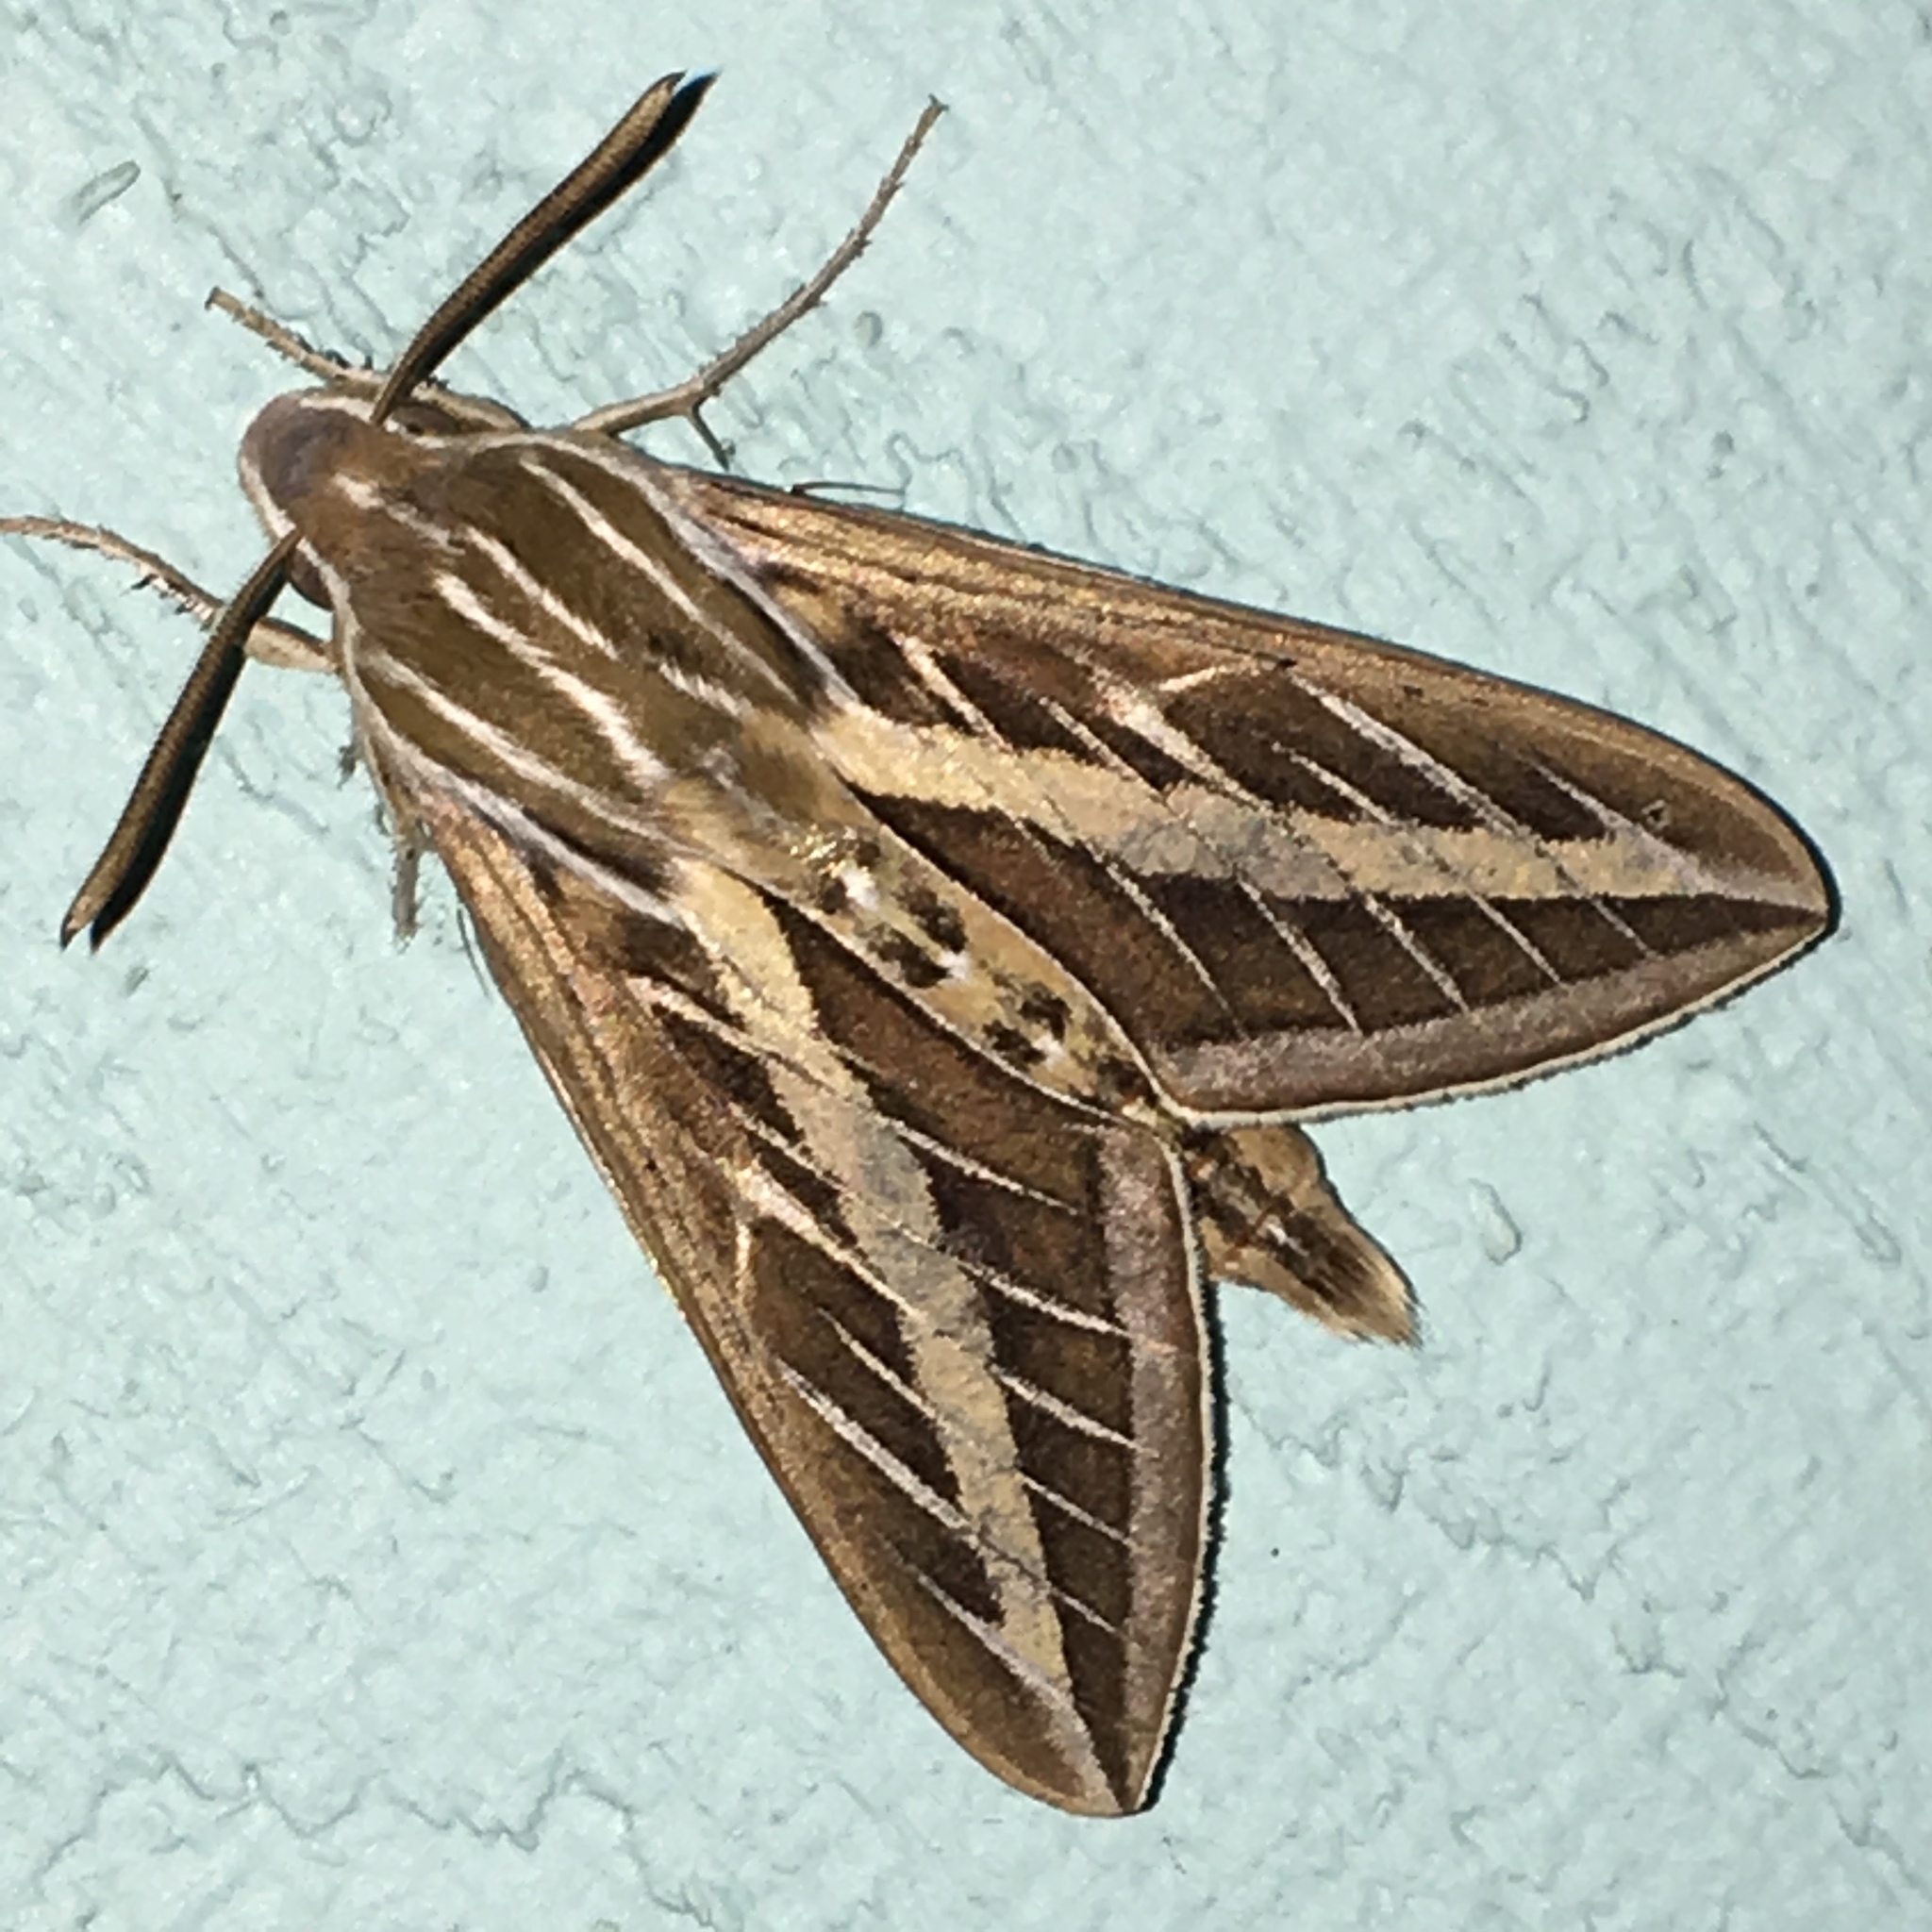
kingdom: Animalia
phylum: Arthropoda
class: Insecta
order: Lepidoptera
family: Sphingidae
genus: Hyles
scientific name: Hyles lineata
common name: White-lined sphinx
